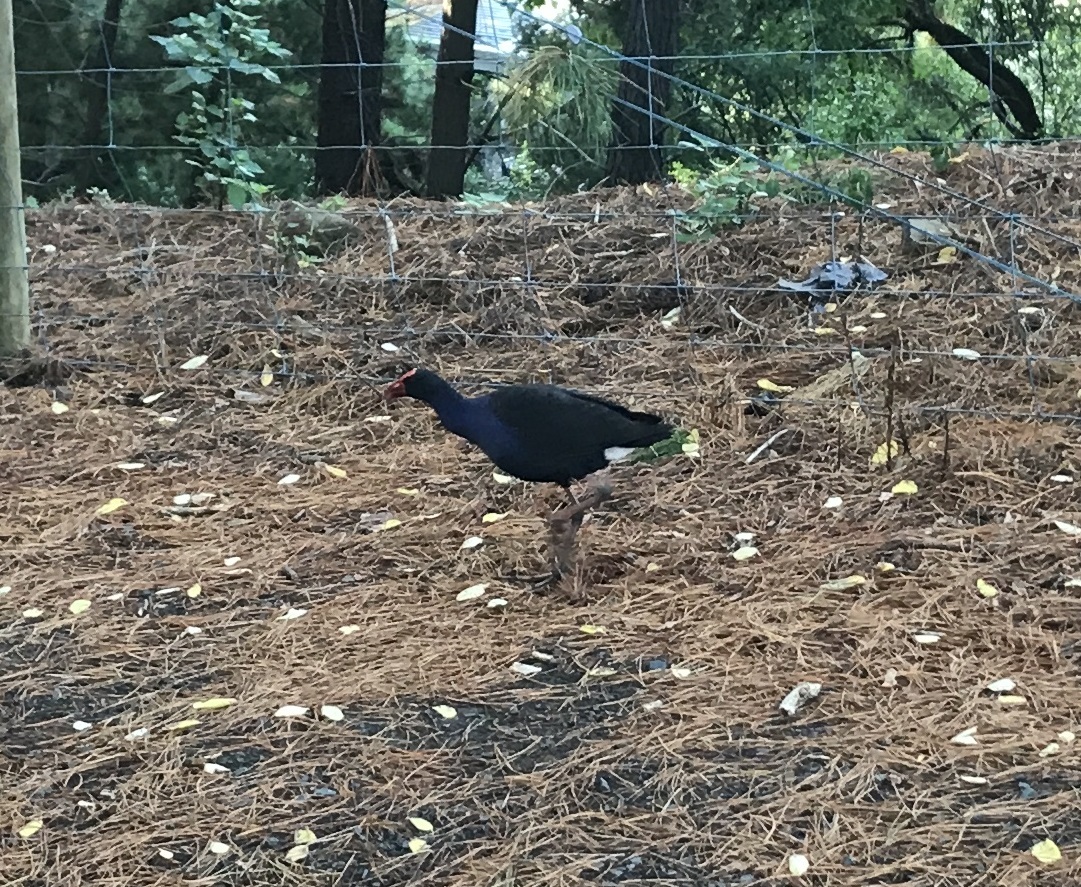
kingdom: Animalia
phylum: Chordata
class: Aves
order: Gruiformes
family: Rallidae
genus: Porphyrio
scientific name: Porphyrio melanotus
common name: Australasian swamphen
